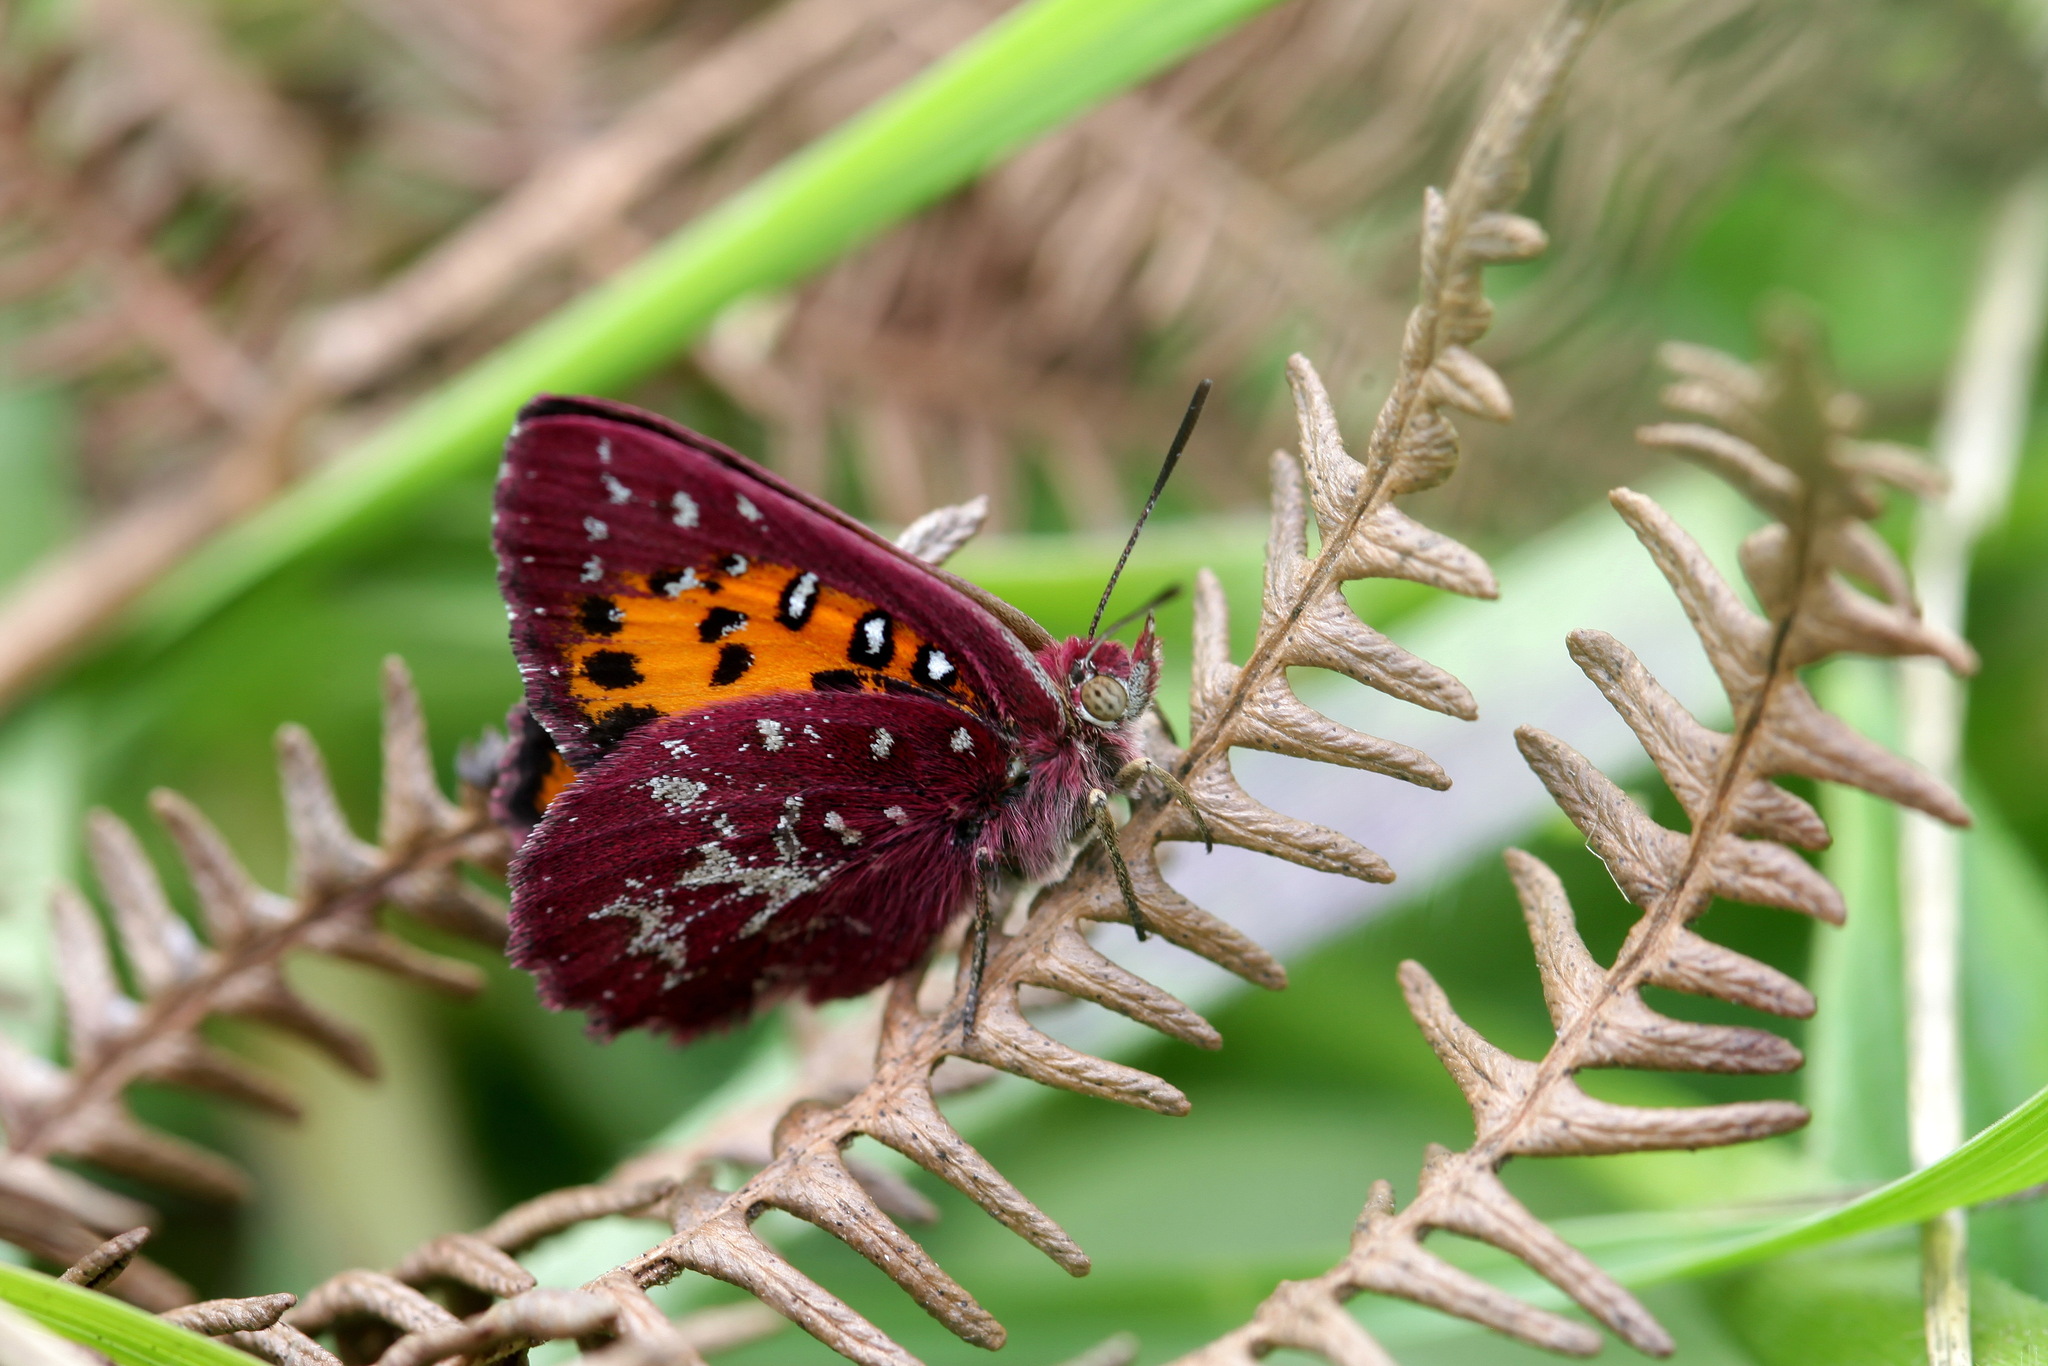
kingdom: Animalia
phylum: Arthropoda
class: Insecta
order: Lepidoptera
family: Lycaenidae
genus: Aloeides
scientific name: Aloeides penningtoni
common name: Pennington's copper
